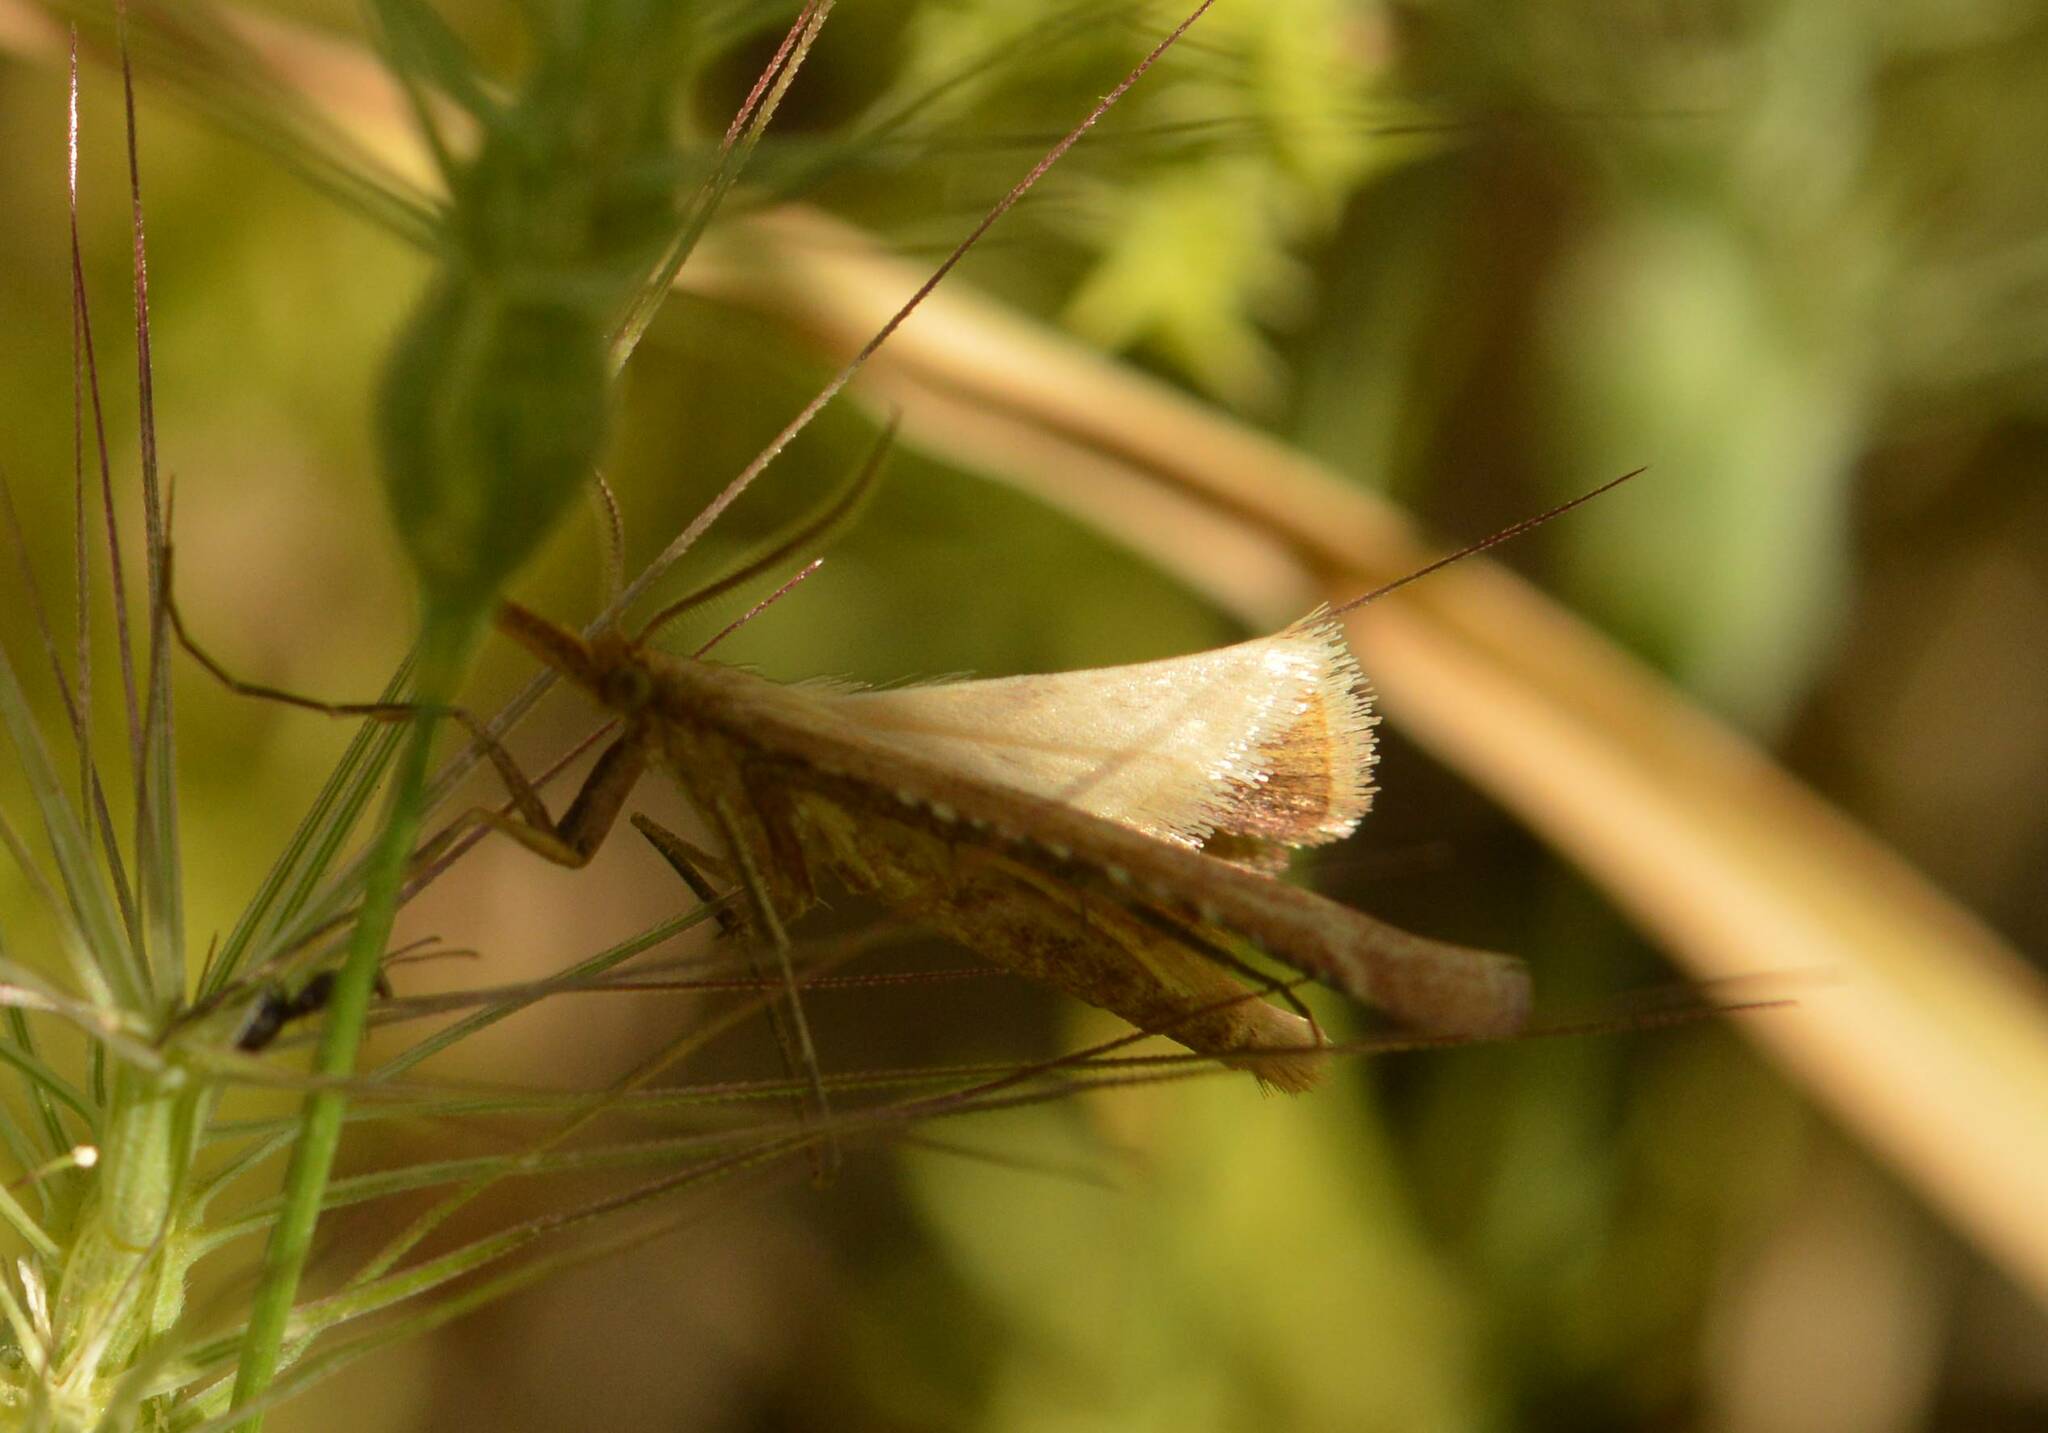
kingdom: Animalia
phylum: Arthropoda
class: Insecta
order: Lepidoptera
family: Pyralidae
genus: Synaphe
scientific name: Synaphe punctalis
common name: Long-legged tabby
